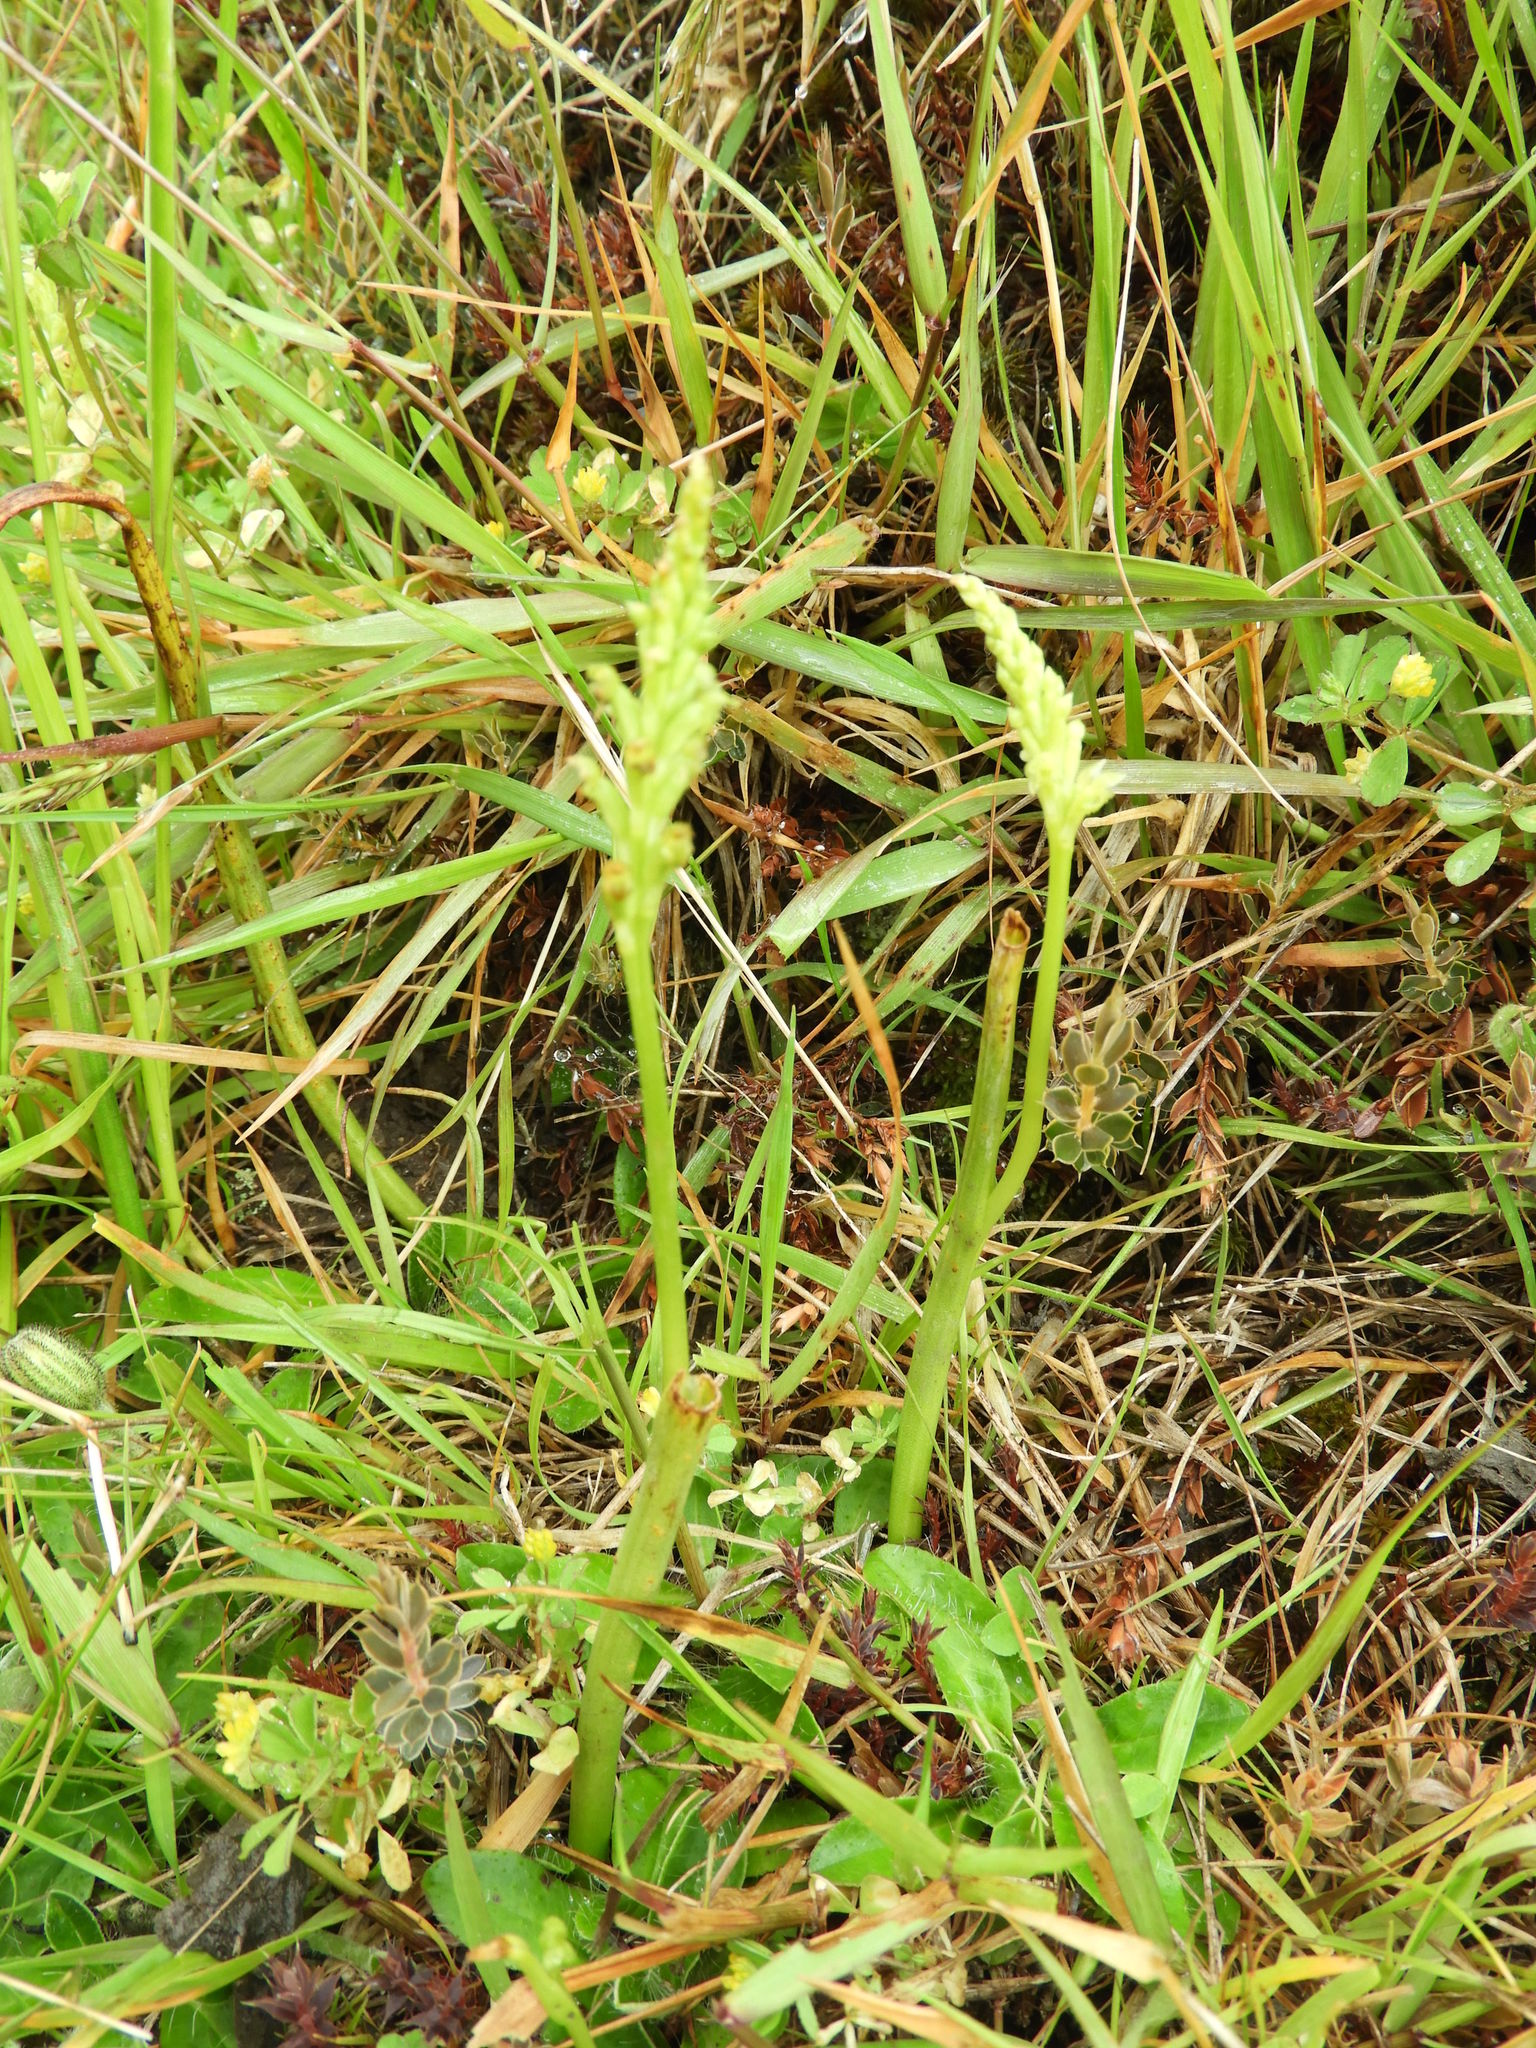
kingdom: Plantae
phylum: Tracheophyta
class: Liliopsida
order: Asparagales
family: Orchidaceae
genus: Microtis
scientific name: Microtis unifolia
